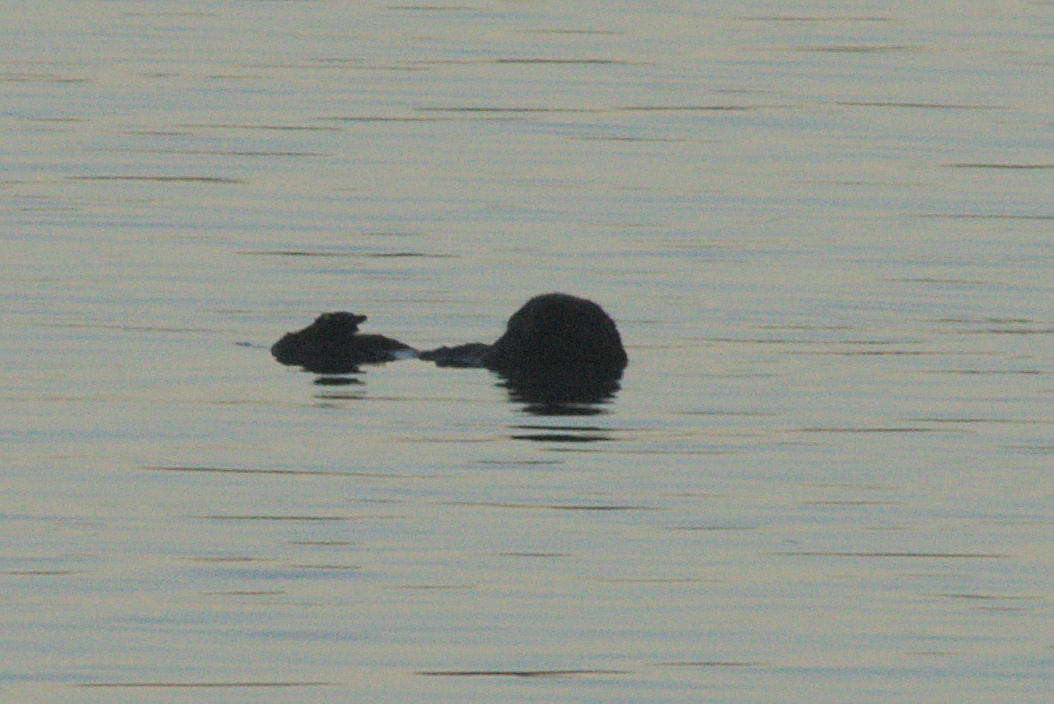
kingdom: Animalia
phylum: Chordata
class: Mammalia
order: Carnivora
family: Mustelidae
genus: Enhydra
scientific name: Enhydra lutris
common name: Sea otter
